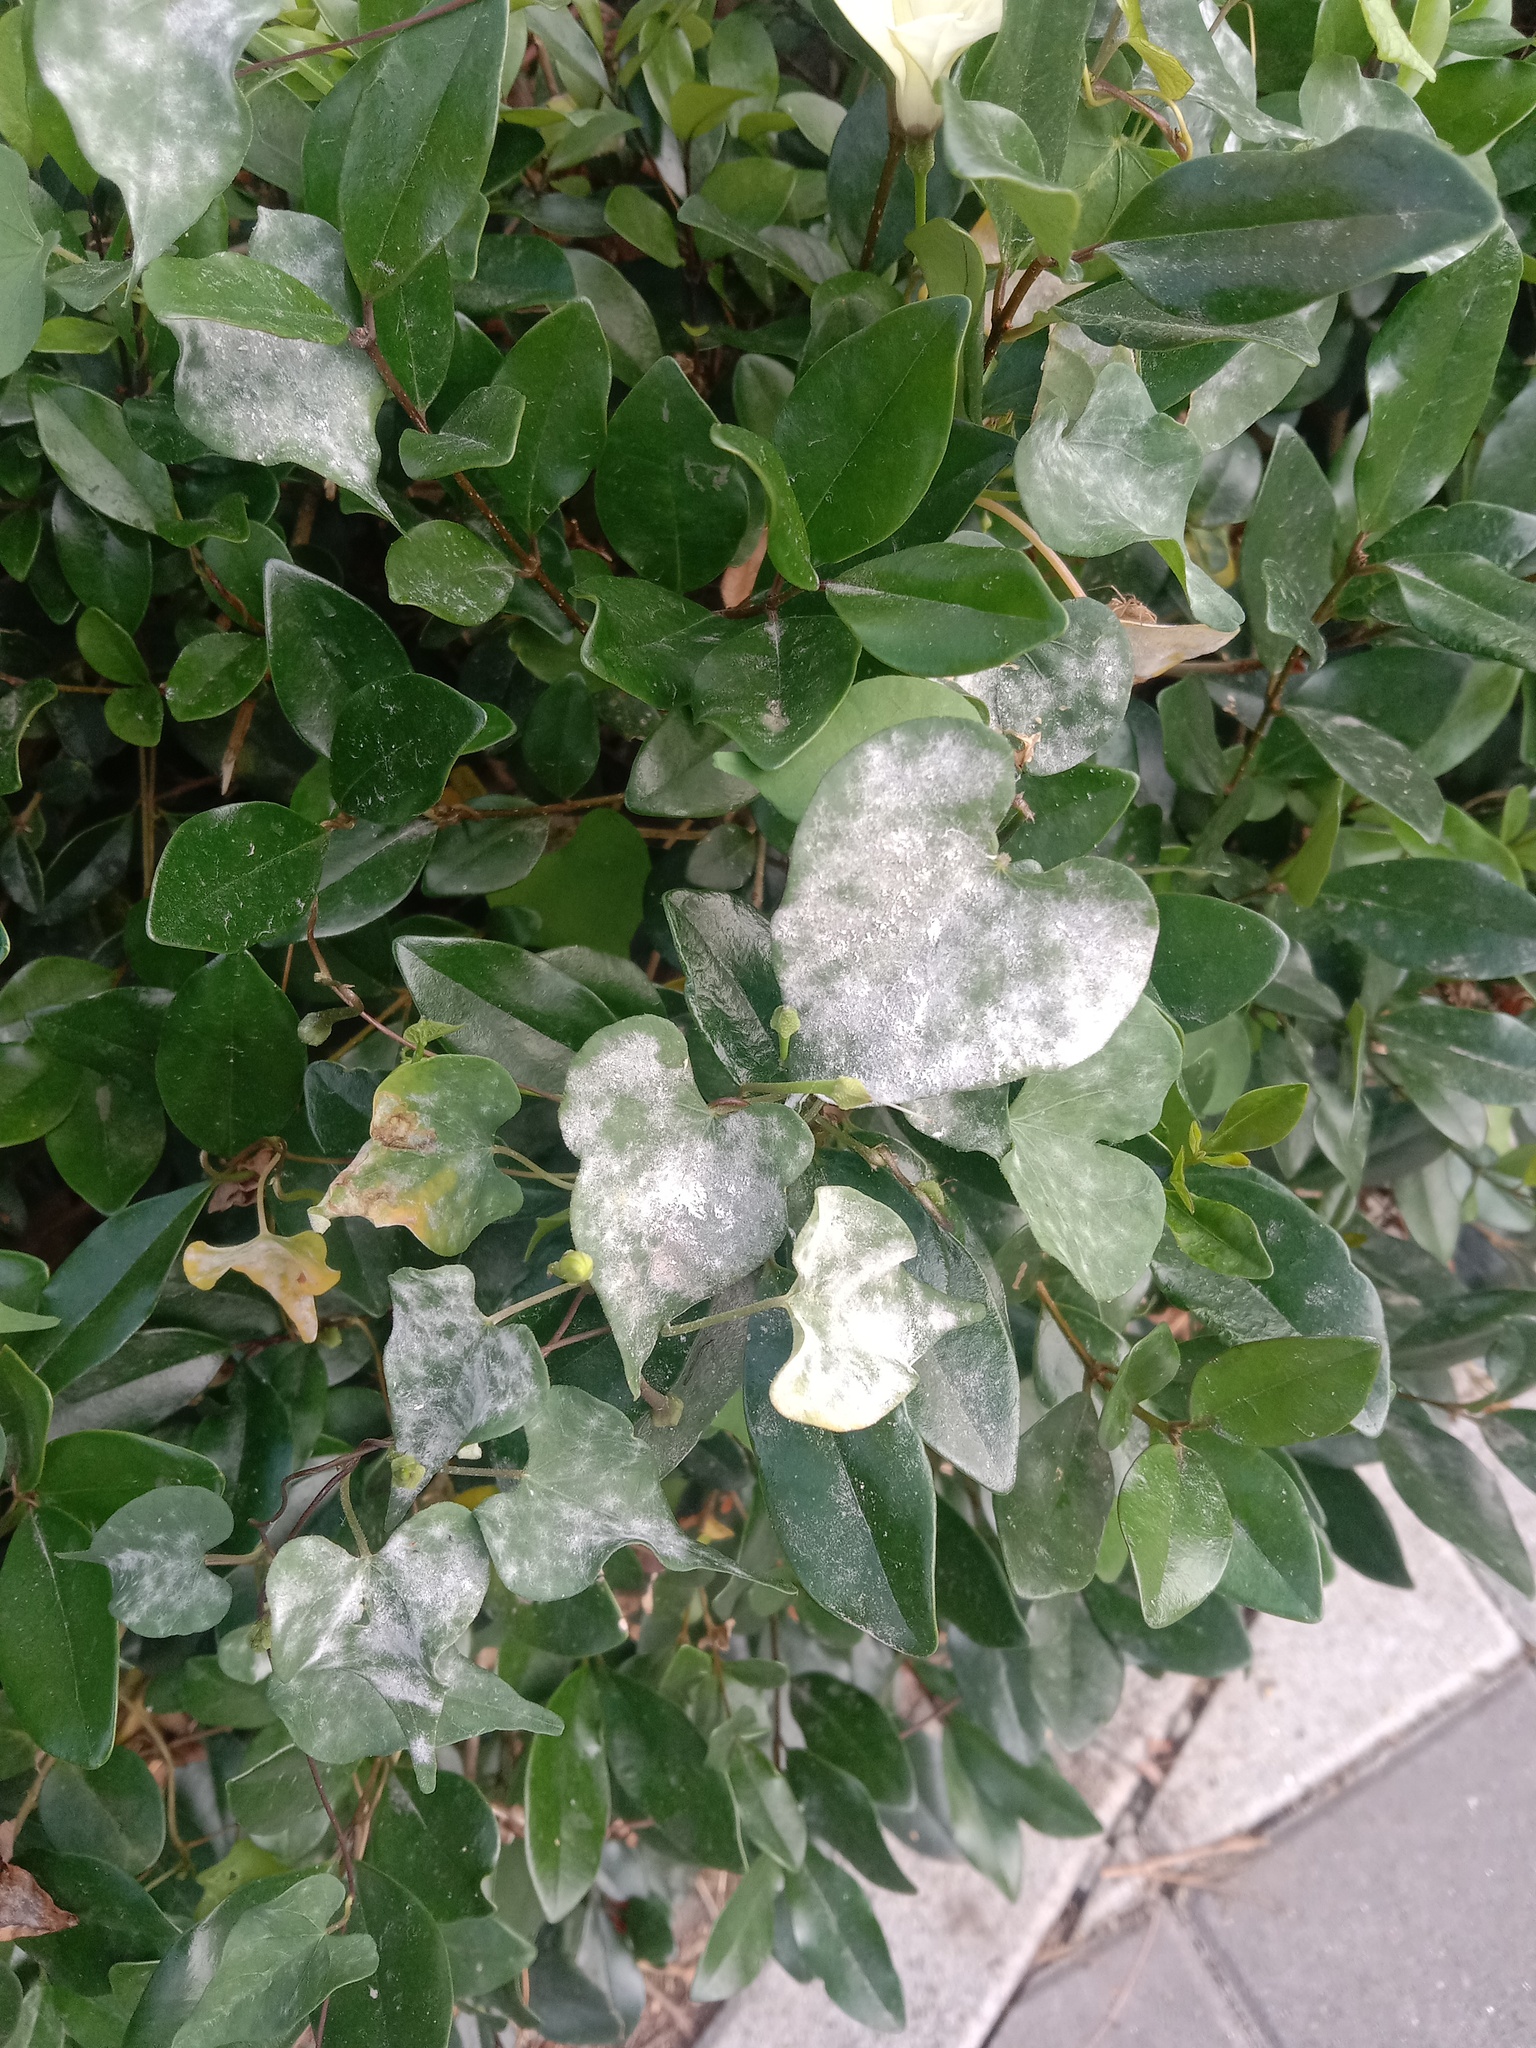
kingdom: Fungi
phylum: Ascomycota
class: Leotiomycetes
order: Helotiales
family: Erysiphaceae
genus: Erysiphe
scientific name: Erysiphe heraclei
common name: Umbellifer mildew
